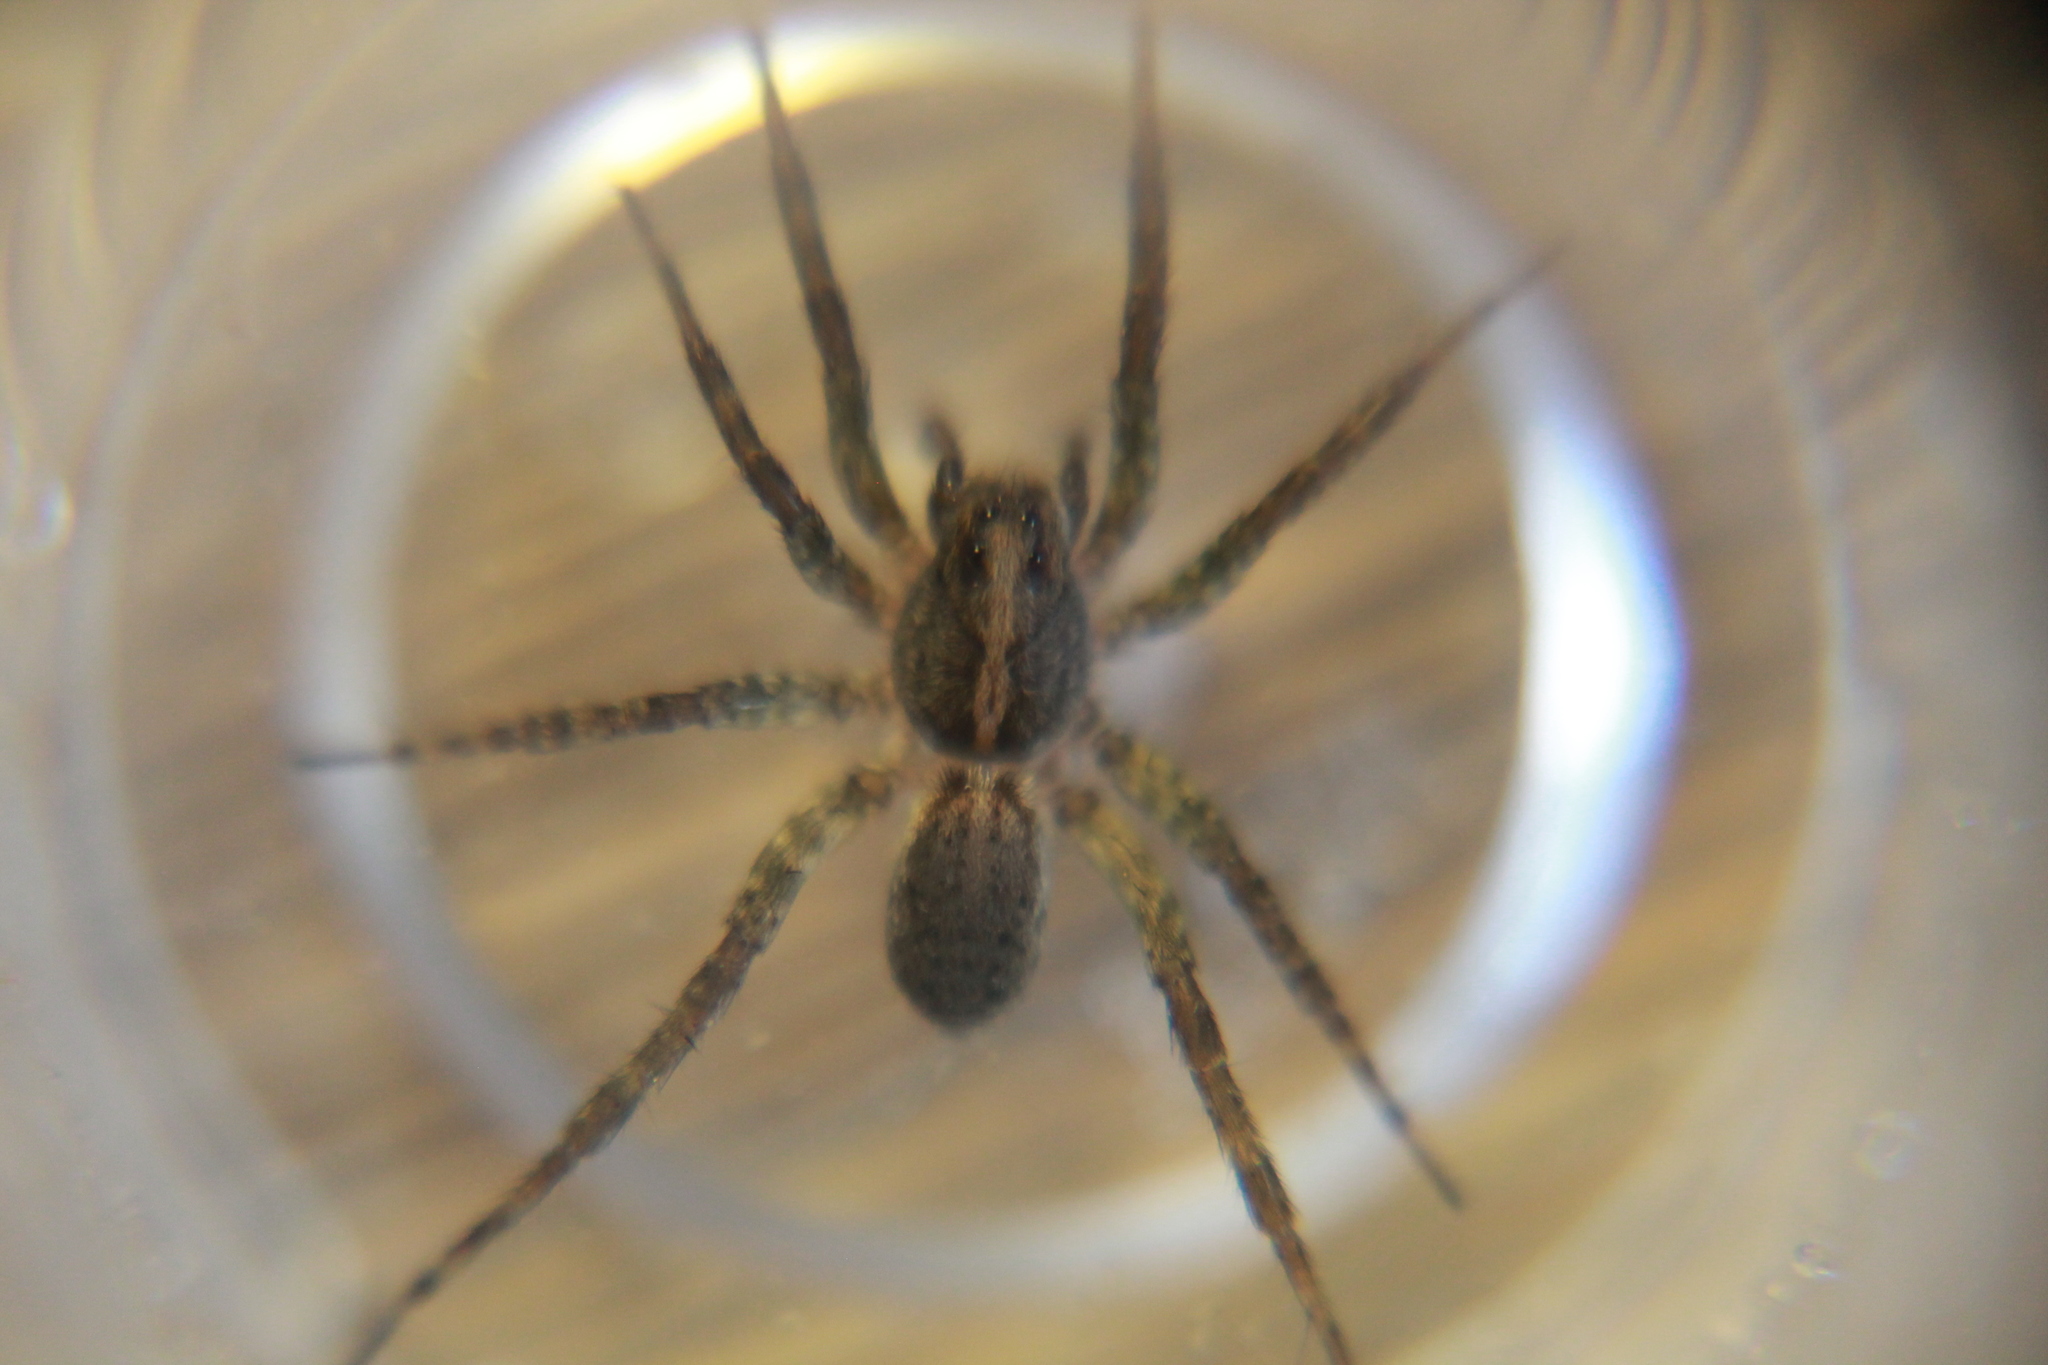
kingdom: Animalia
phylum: Arthropoda
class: Arachnida
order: Araneae
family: Lycosidae
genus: Anoteropsis
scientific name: Anoteropsis hilaris
